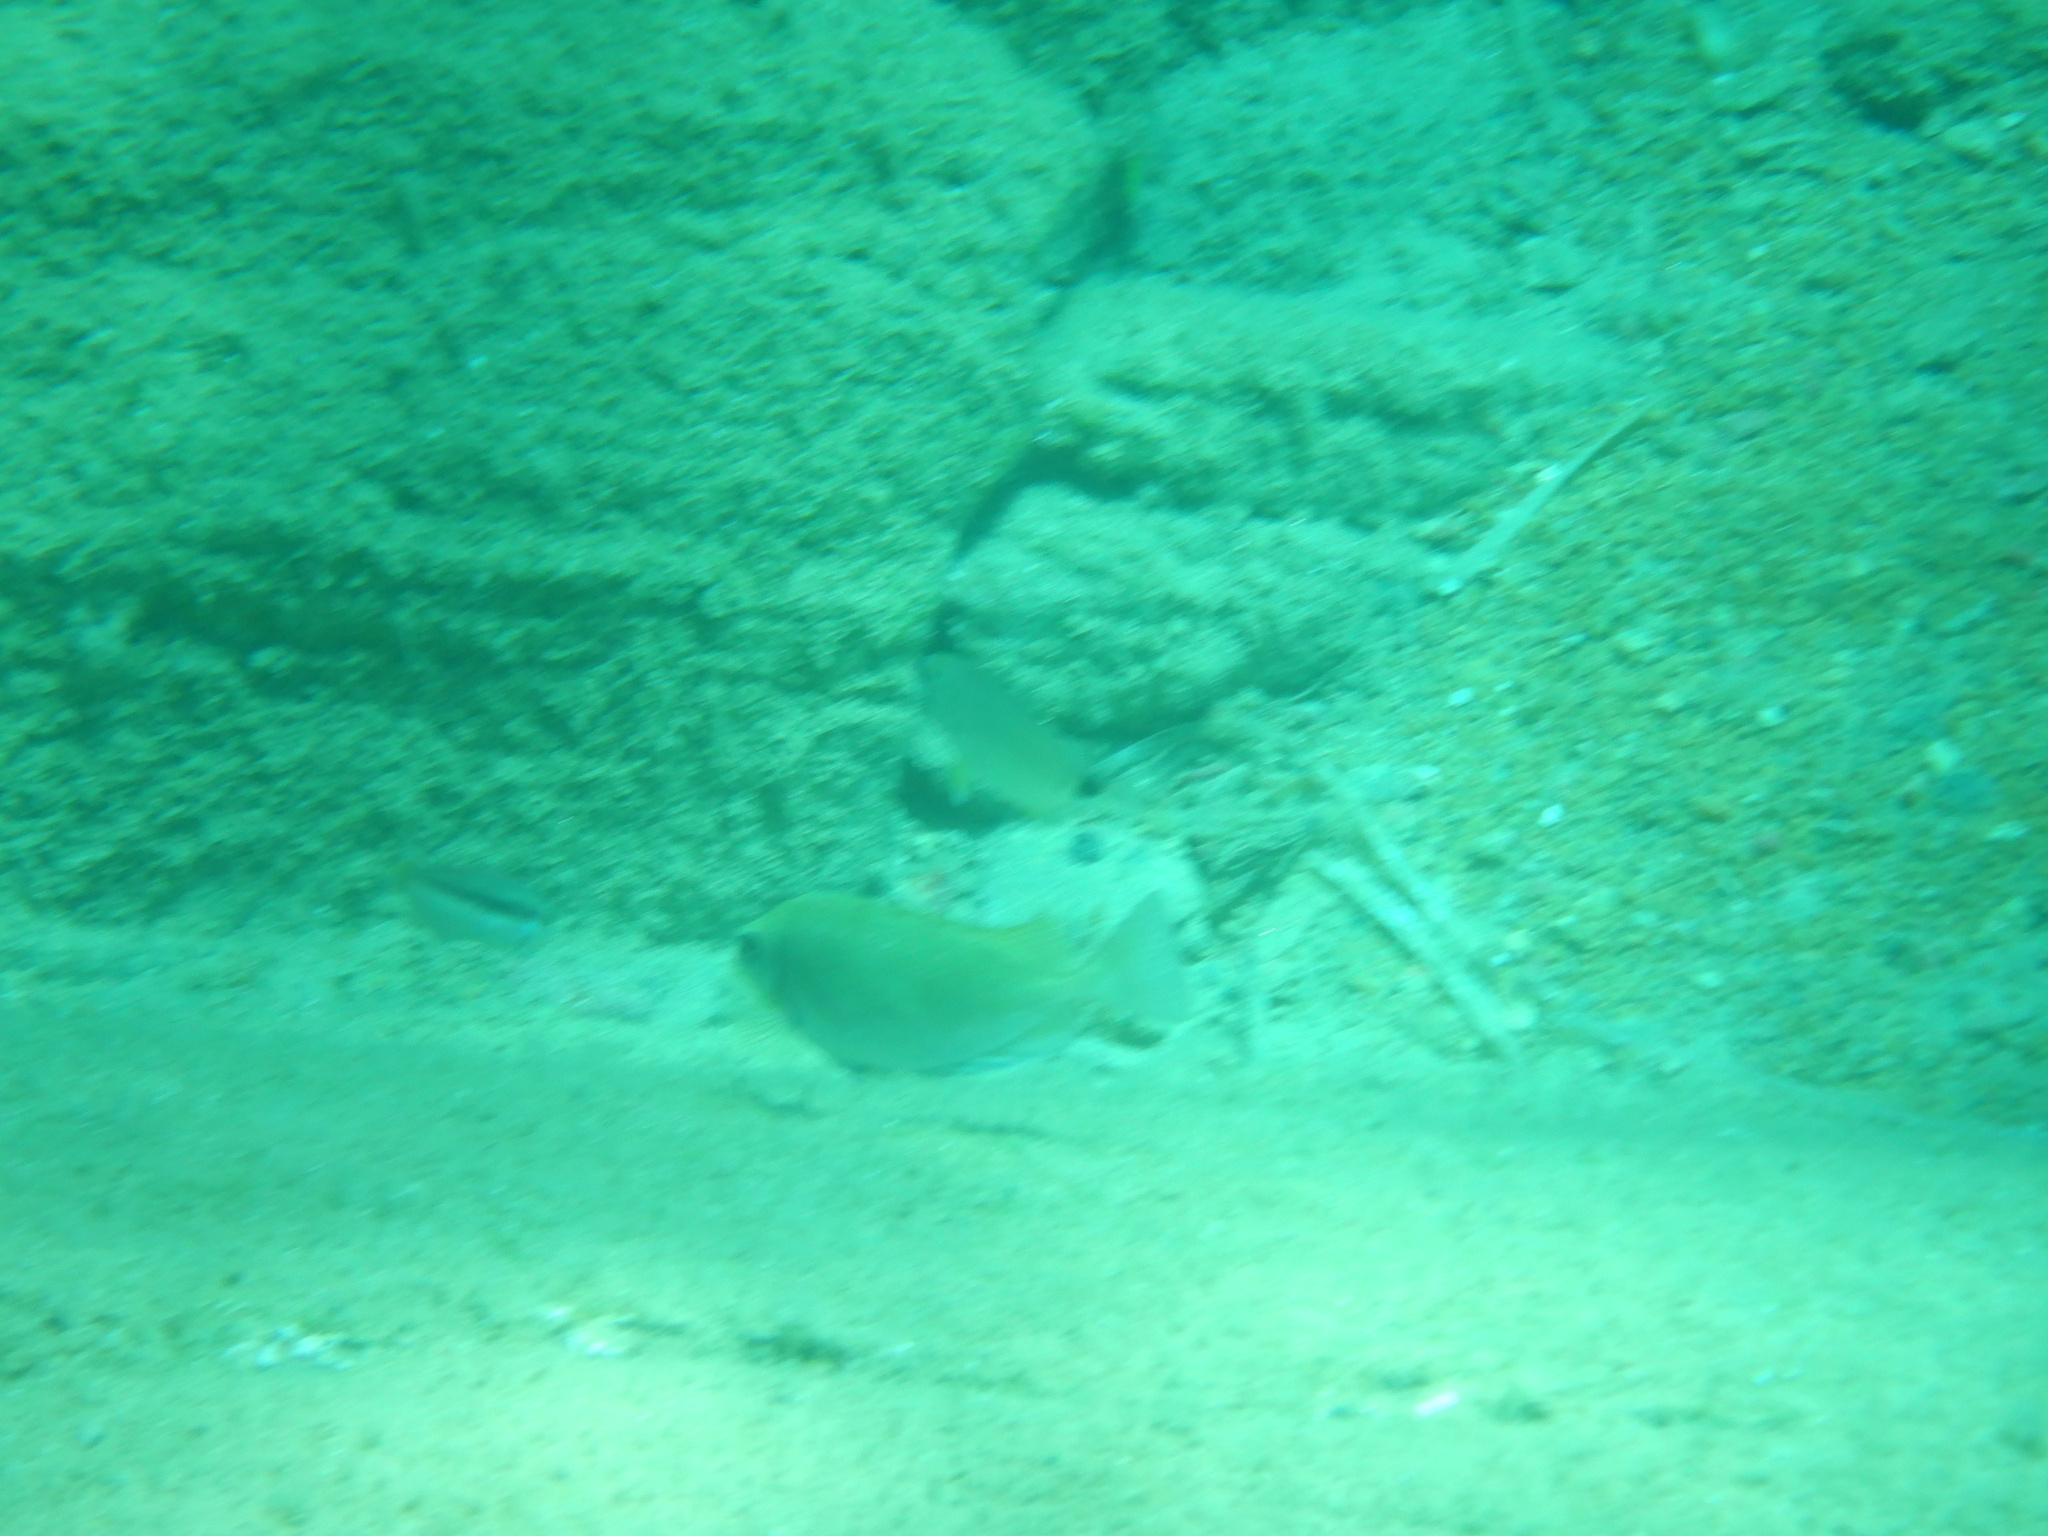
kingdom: Animalia
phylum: Chordata
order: Perciformes
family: Siganidae
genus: Siganus
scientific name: Siganus luridus
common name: Dusky spinefoot
